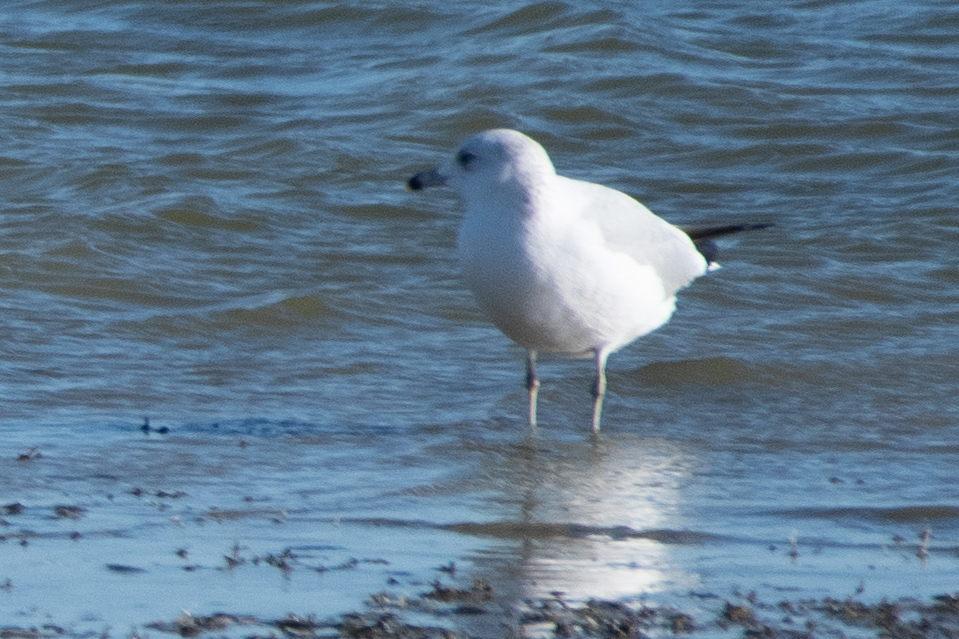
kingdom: Animalia
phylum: Chordata
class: Aves
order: Charadriiformes
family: Laridae
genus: Larus
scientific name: Larus delawarensis
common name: Ring-billed gull
